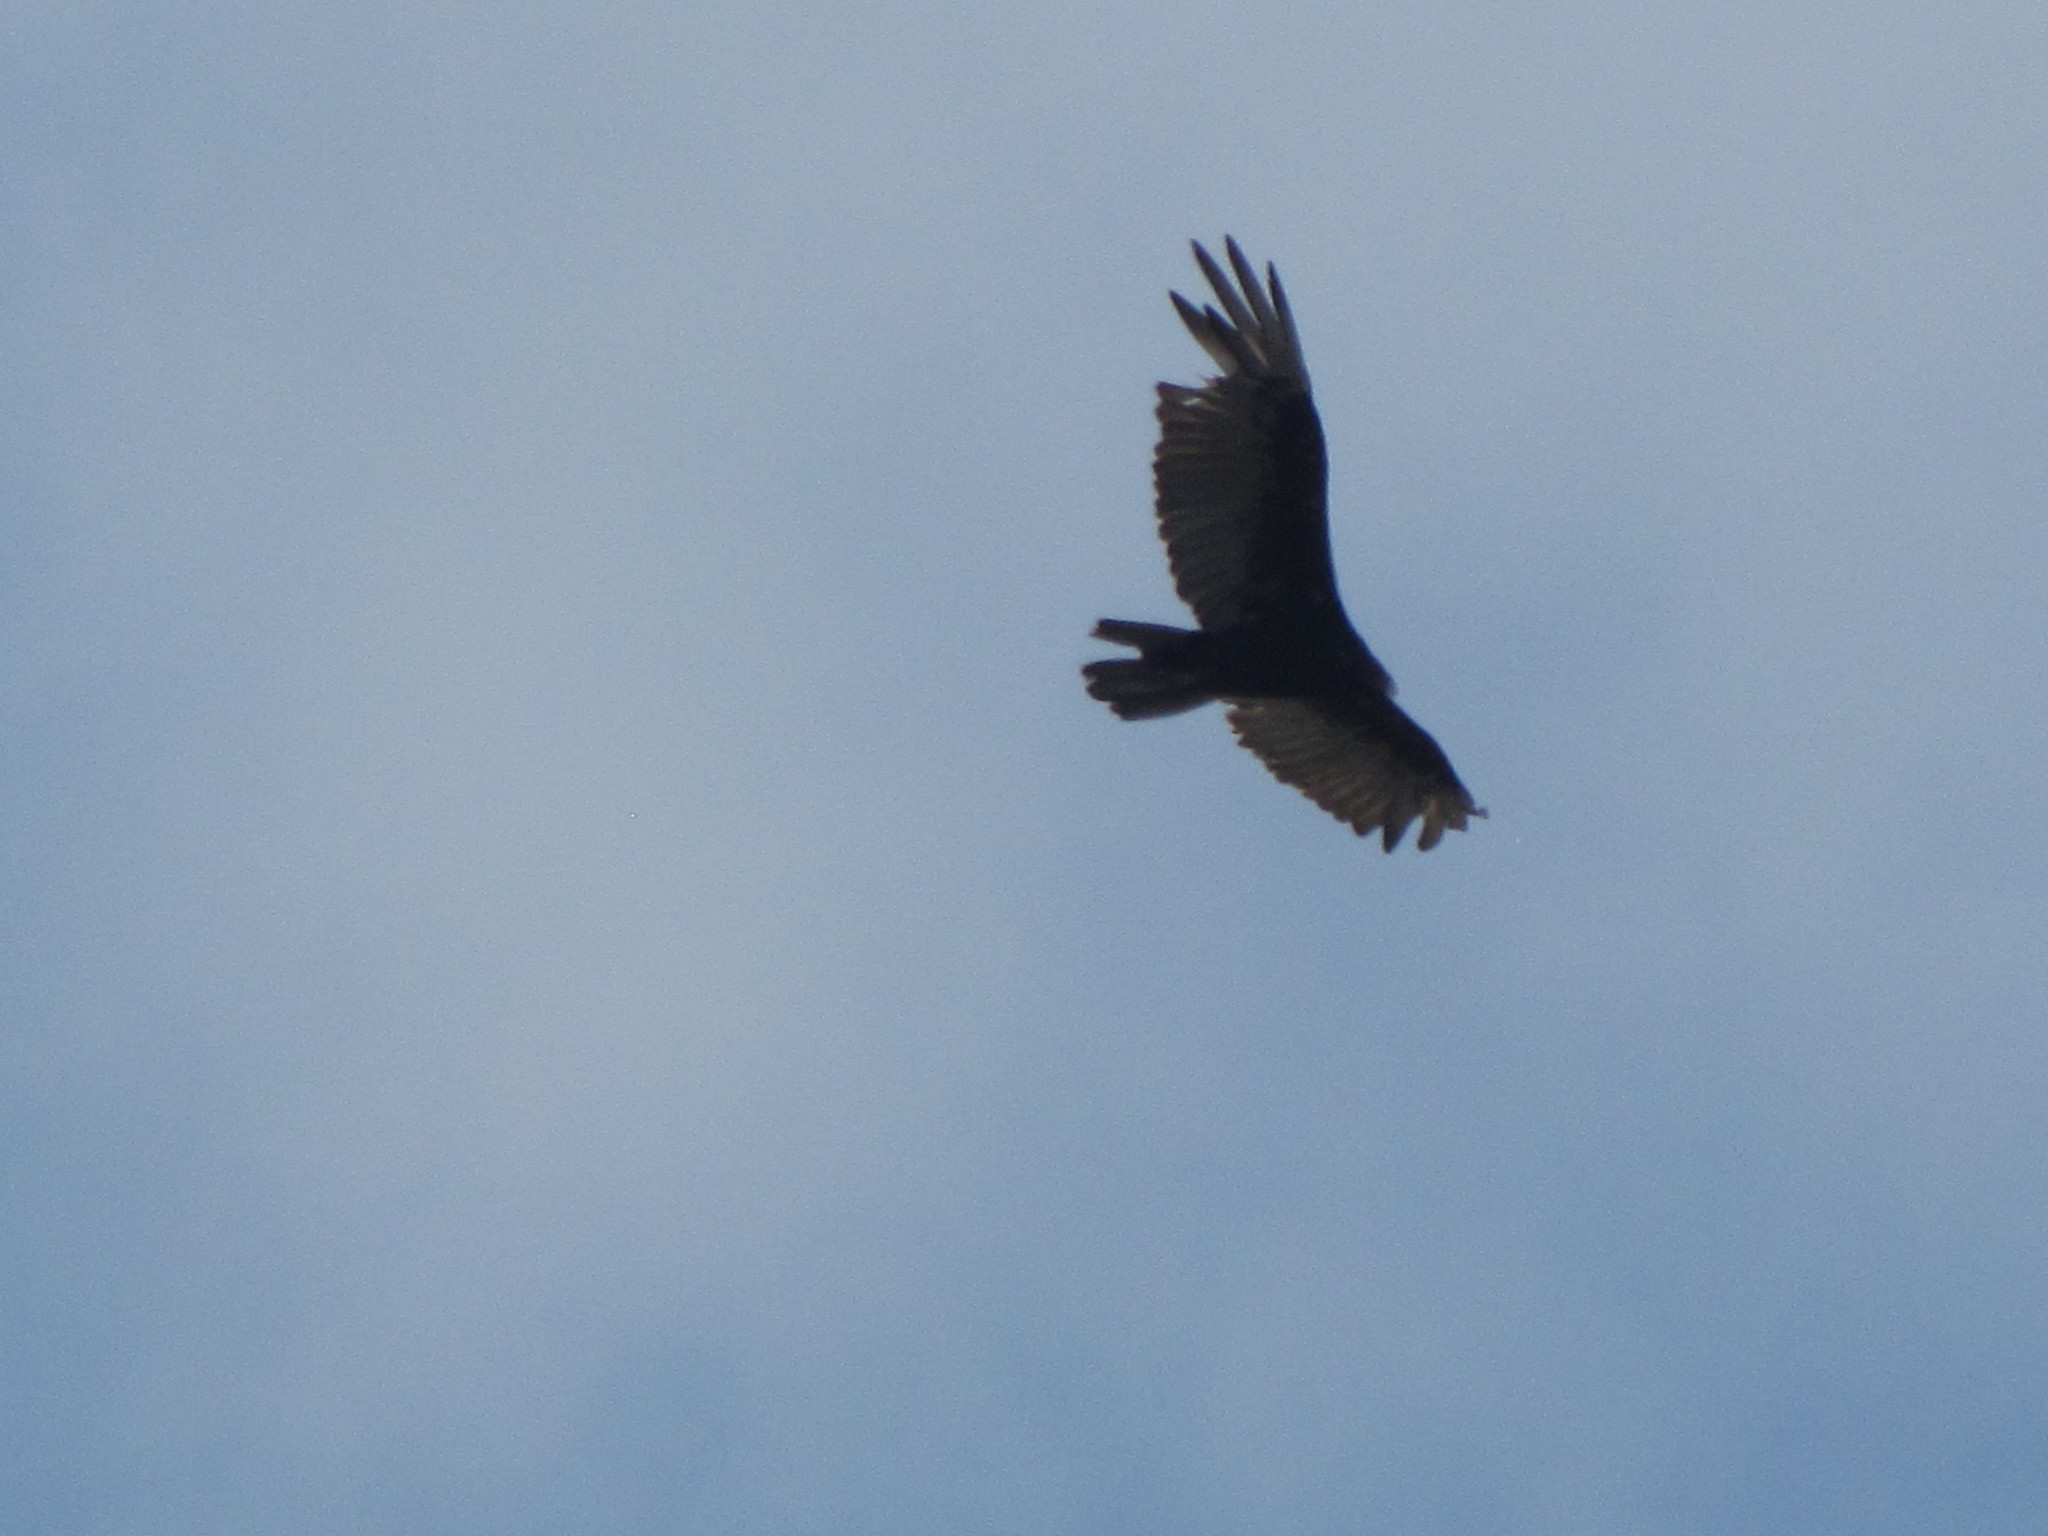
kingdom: Animalia
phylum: Chordata
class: Aves
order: Accipitriformes
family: Cathartidae
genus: Cathartes
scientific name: Cathartes aura
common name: Turkey vulture
